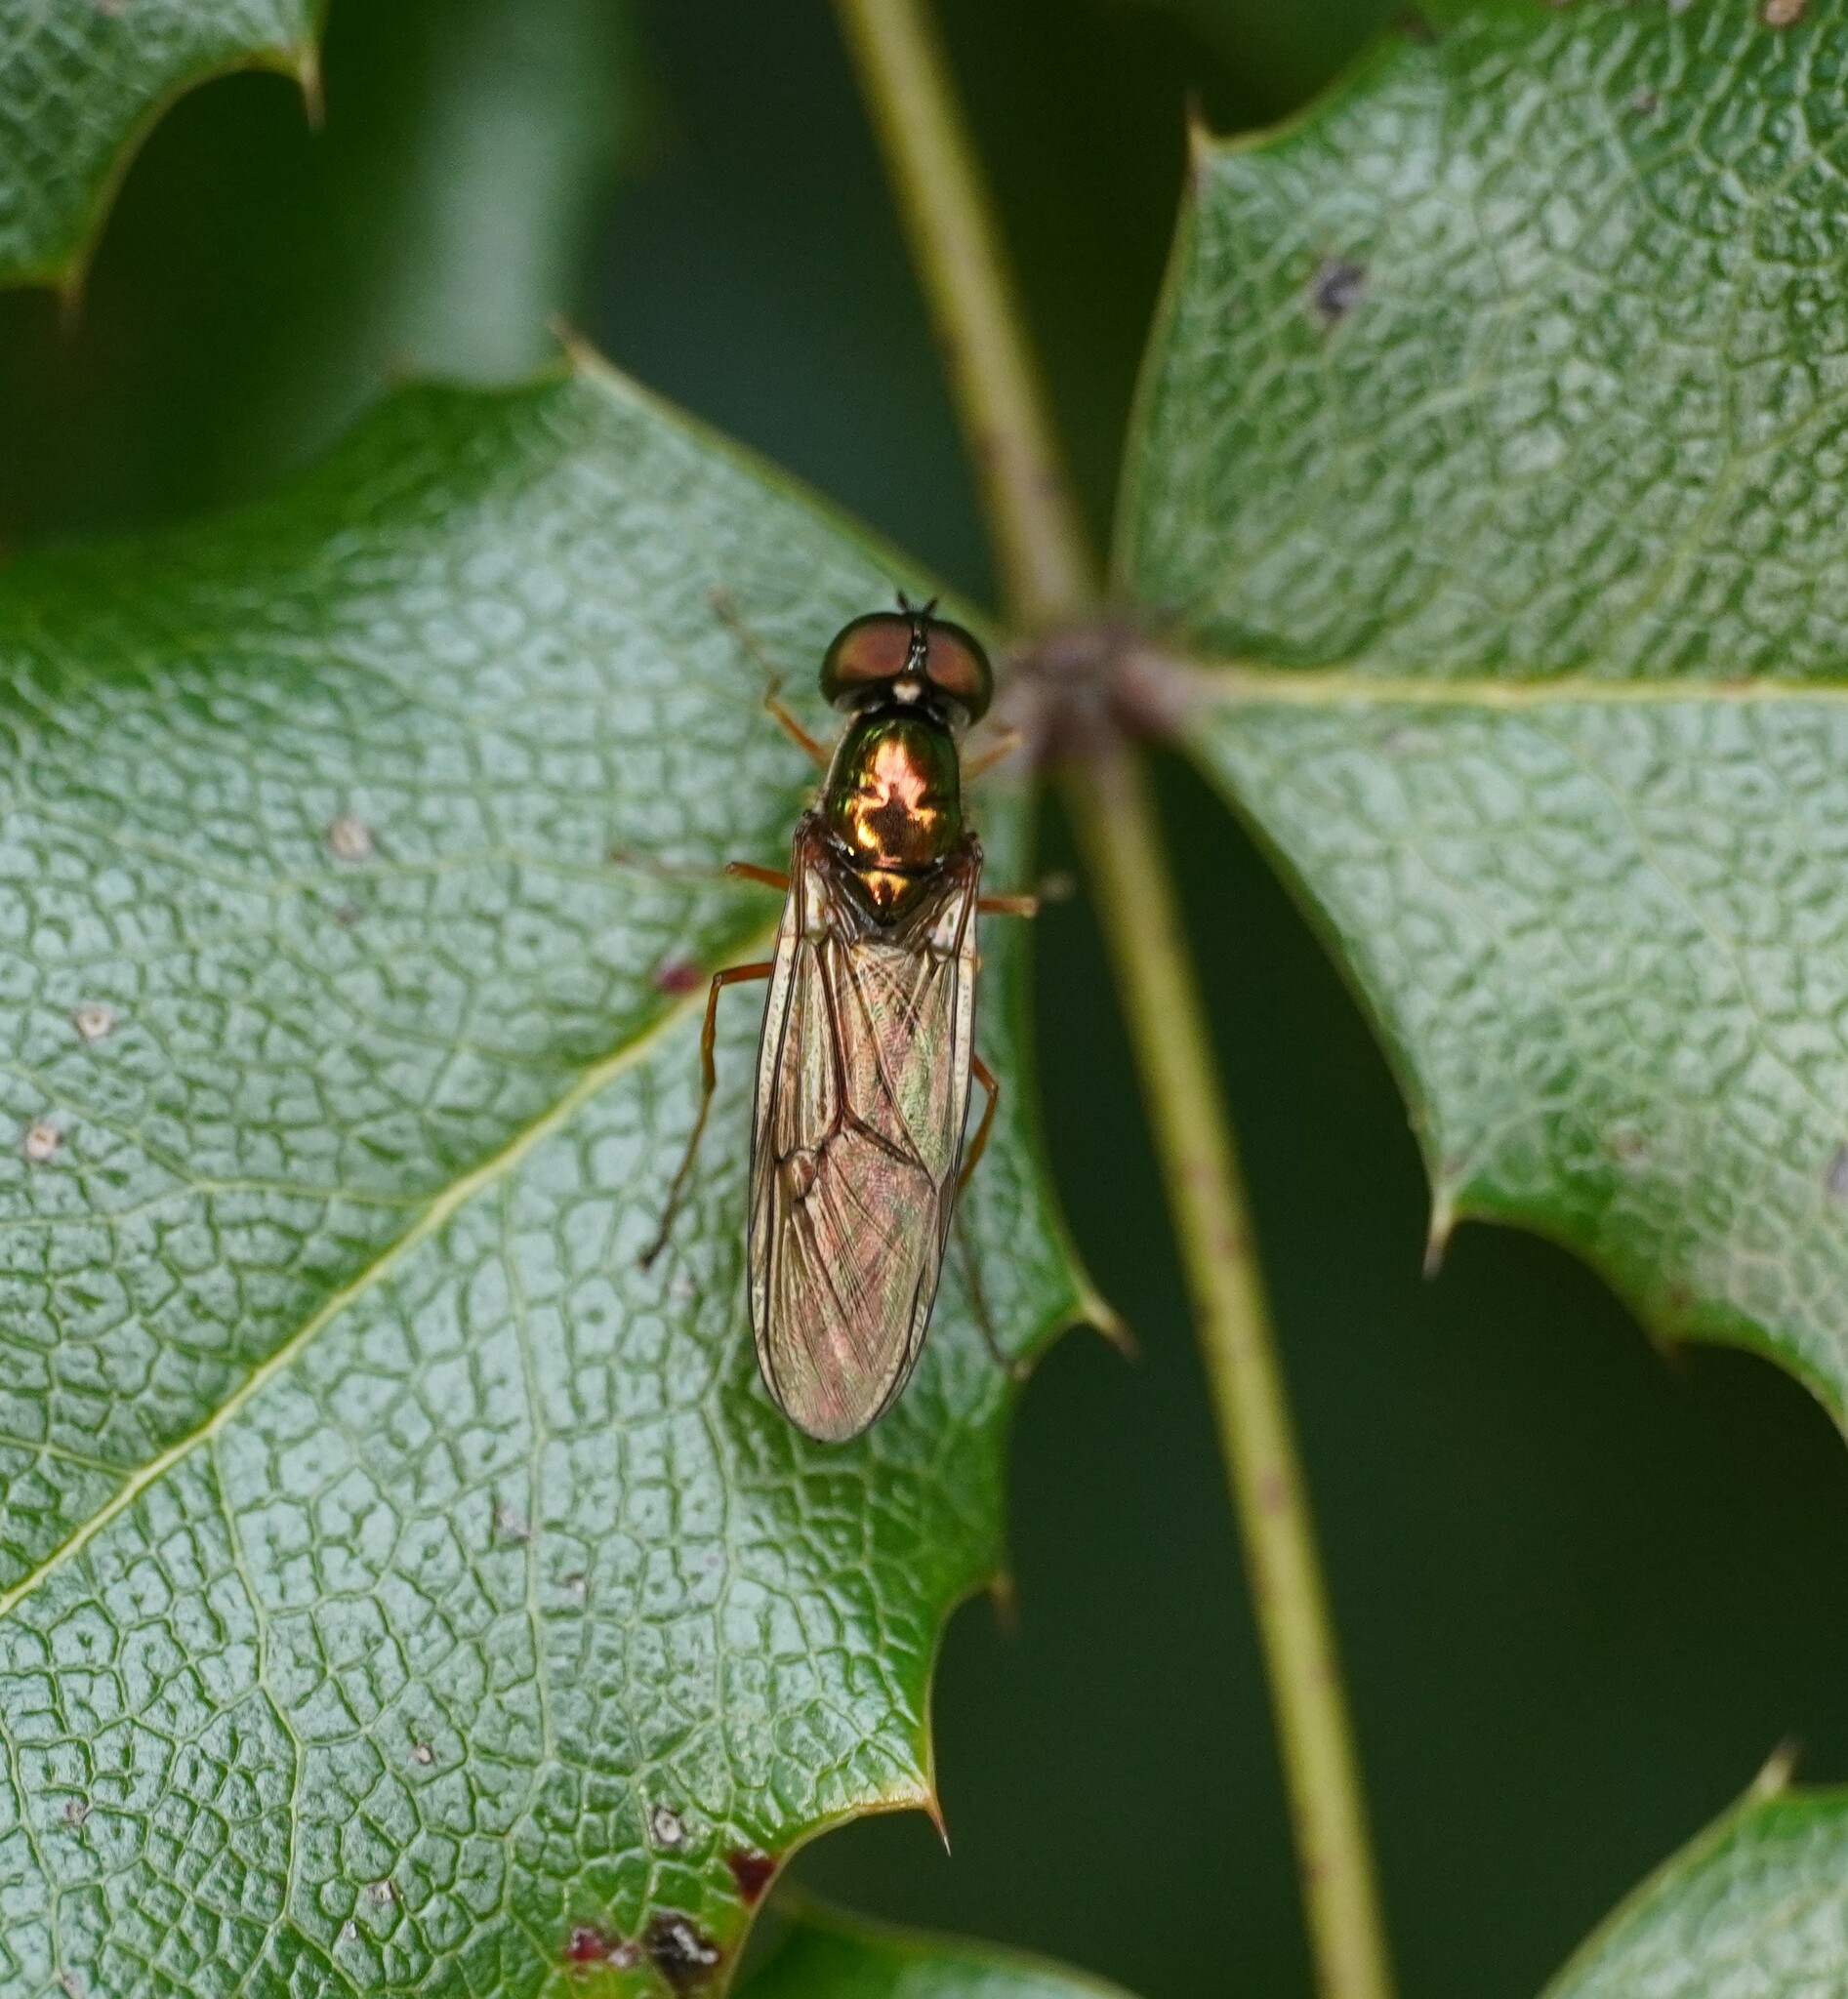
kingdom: Animalia
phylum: Arthropoda
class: Insecta
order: Diptera
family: Stratiomyidae
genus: Sargus
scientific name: Sargus bipunctatus
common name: Twin-spot centurion
